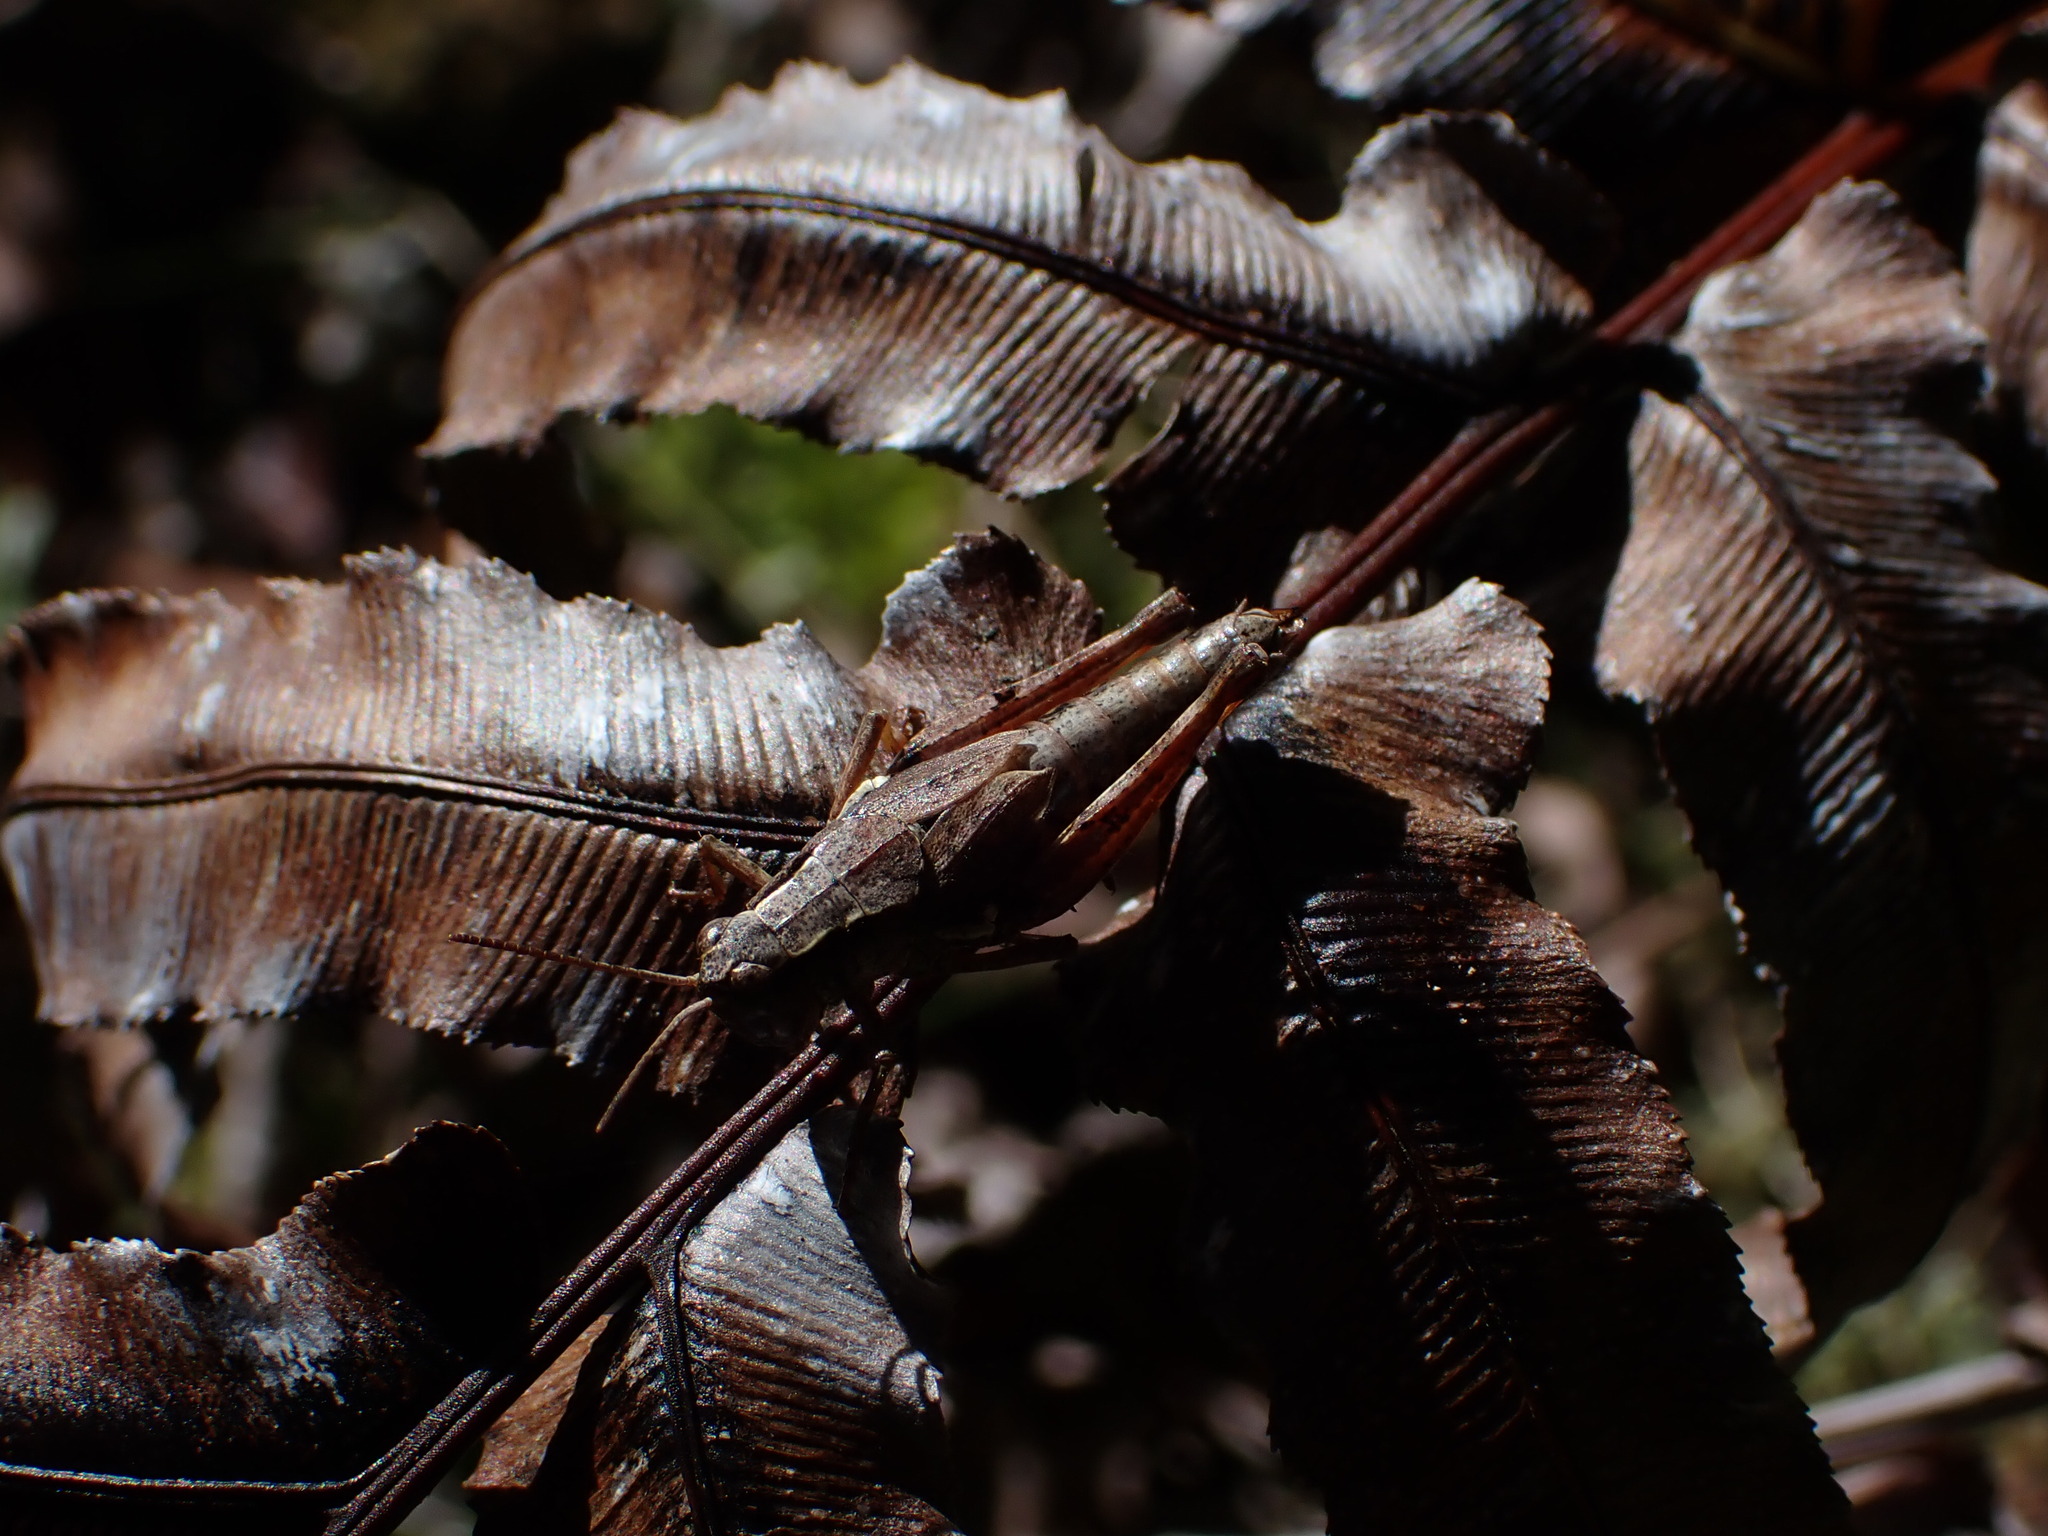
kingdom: Animalia
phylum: Arthropoda
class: Insecta
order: Orthoptera
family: Acrididae
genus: Phaulacridium
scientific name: Phaulacridium marginale
